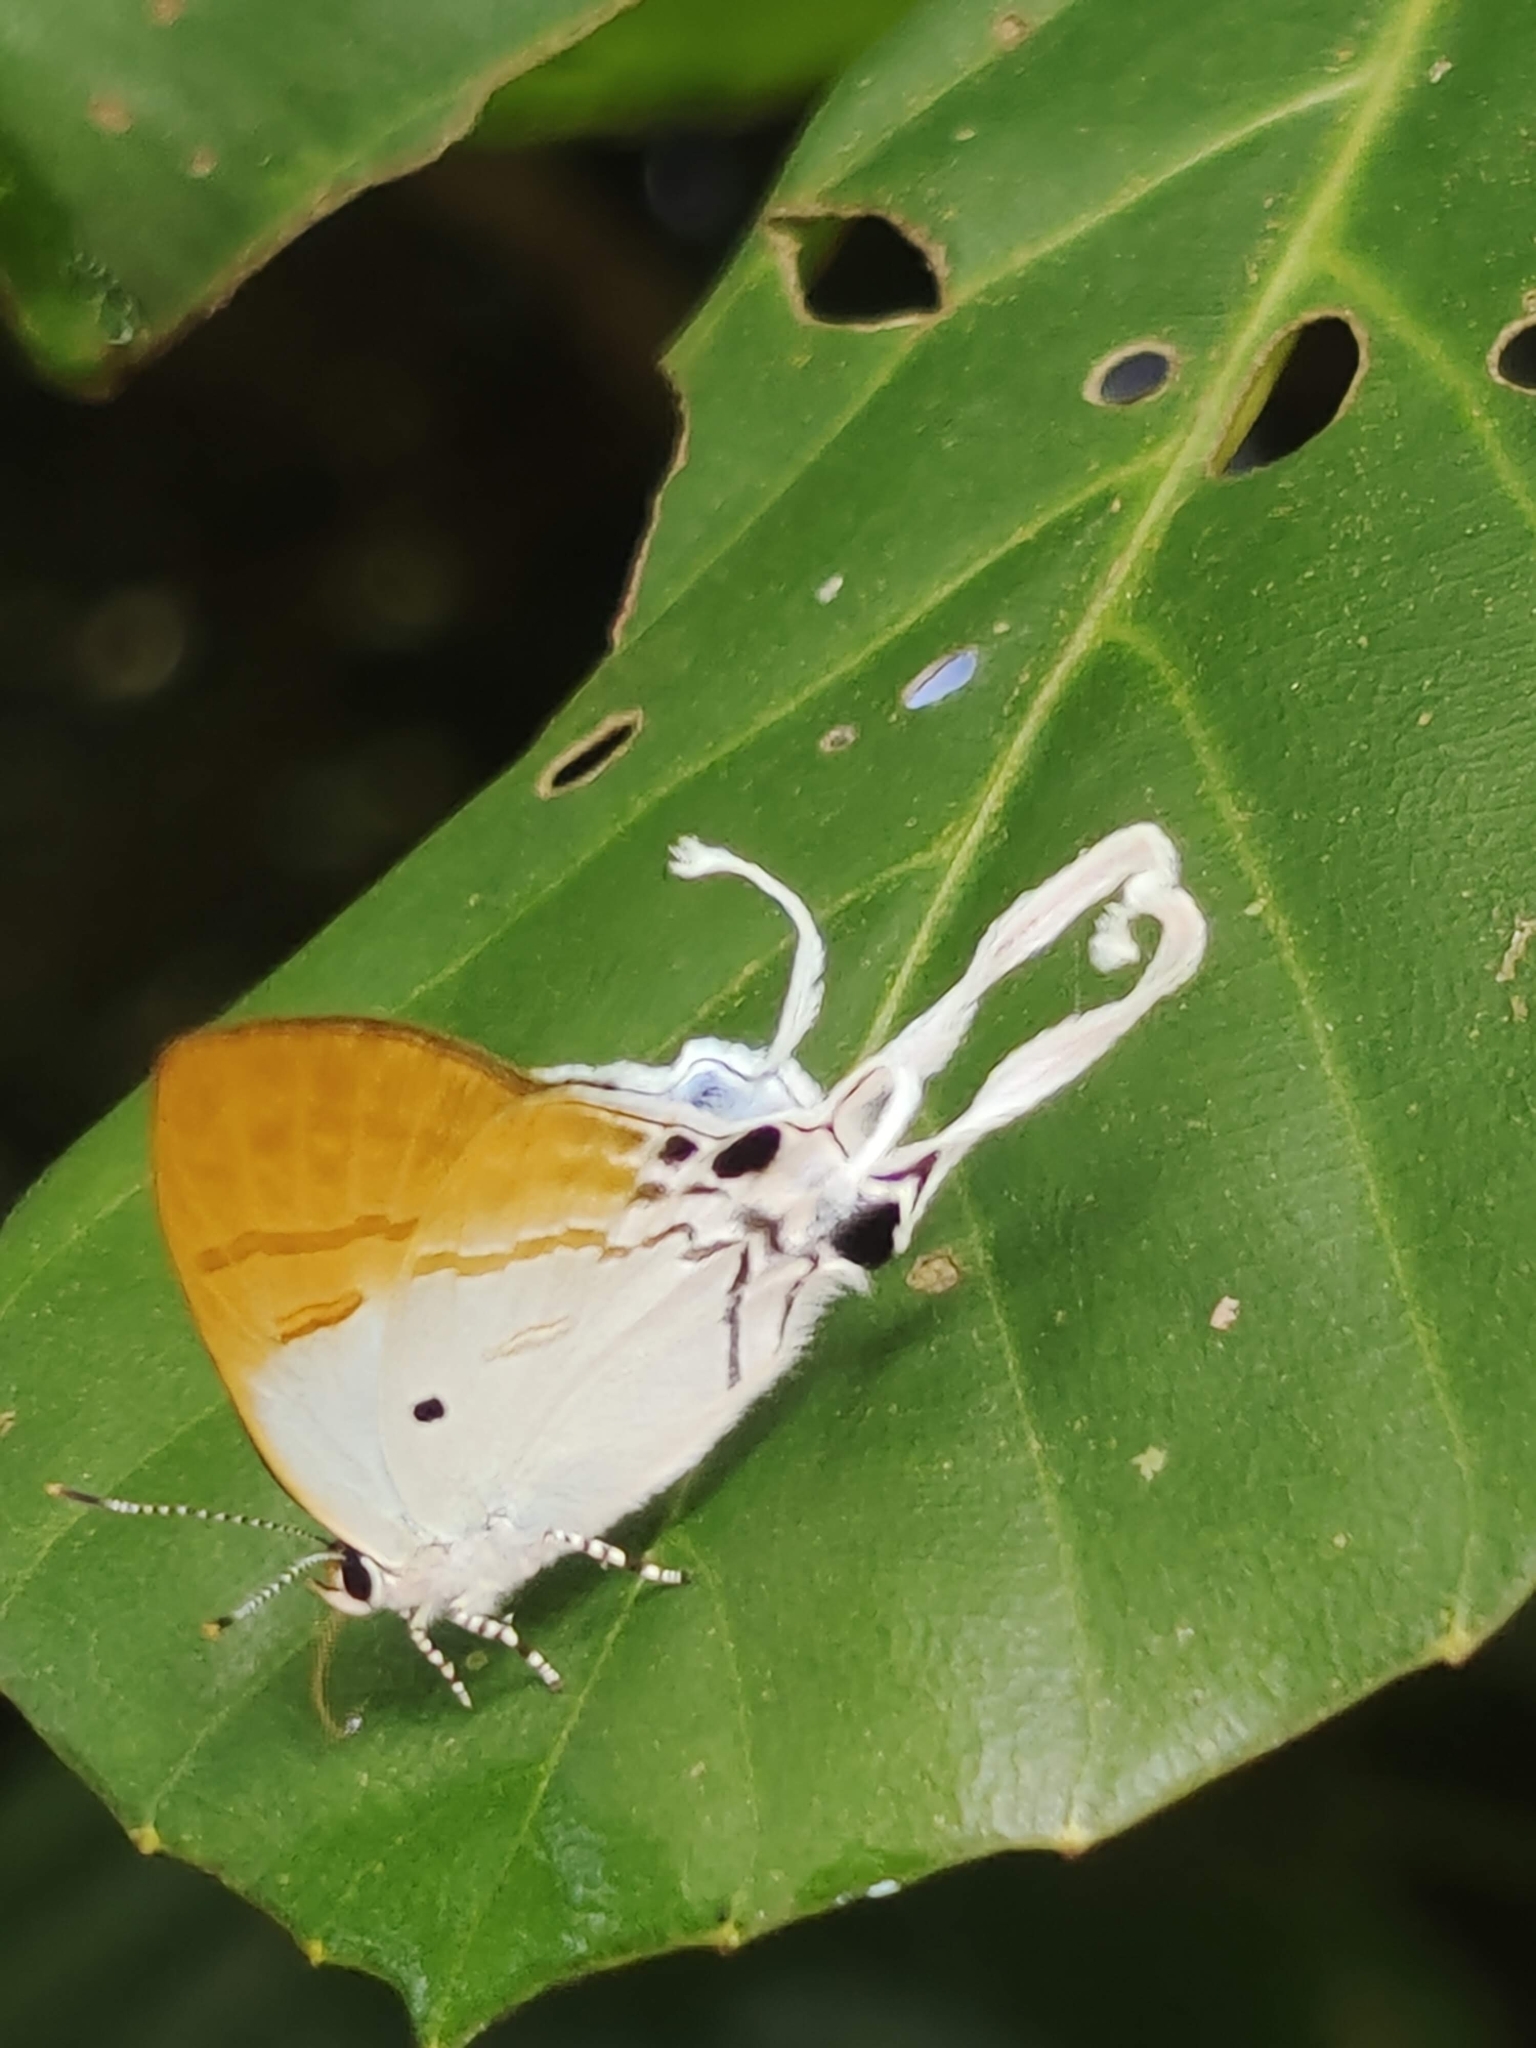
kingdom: Animalia
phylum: Arthropoda
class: Insecta
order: Lepidoptera
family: Lycaenidae
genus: Zeltus
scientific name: Zeltus amasa
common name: Fluffy tit
